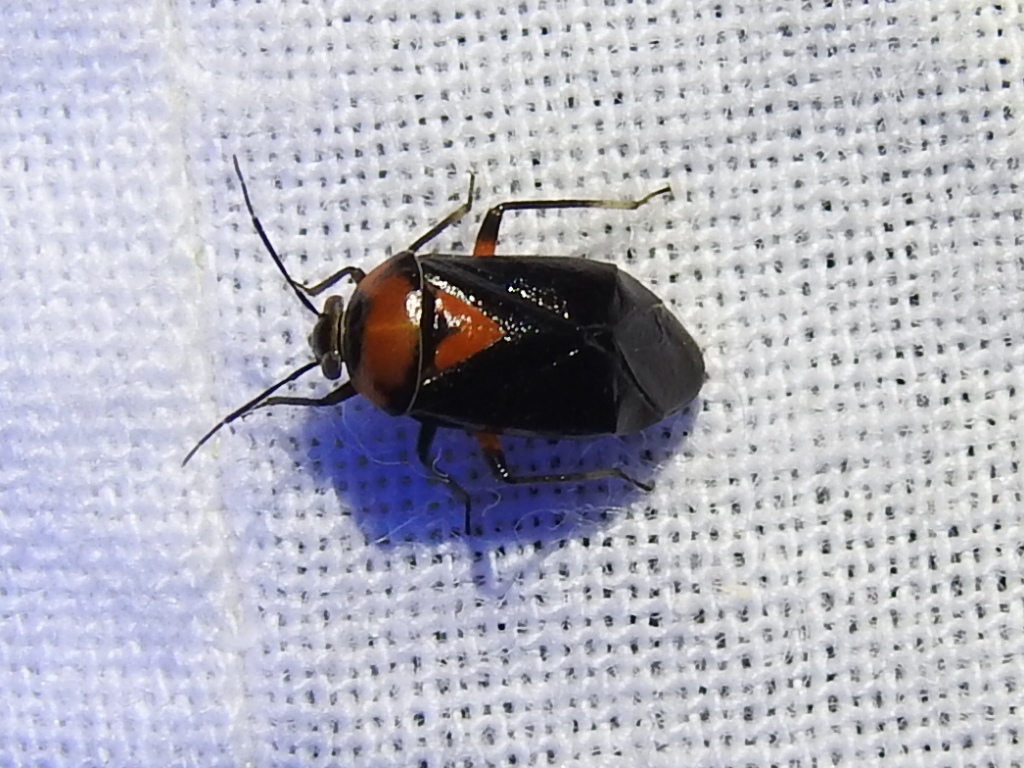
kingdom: Animalia
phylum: Arthropoda
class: Insecta
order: Hemiptera
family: Miridae
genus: Neocapsus
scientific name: Neocapsus cuneatus
